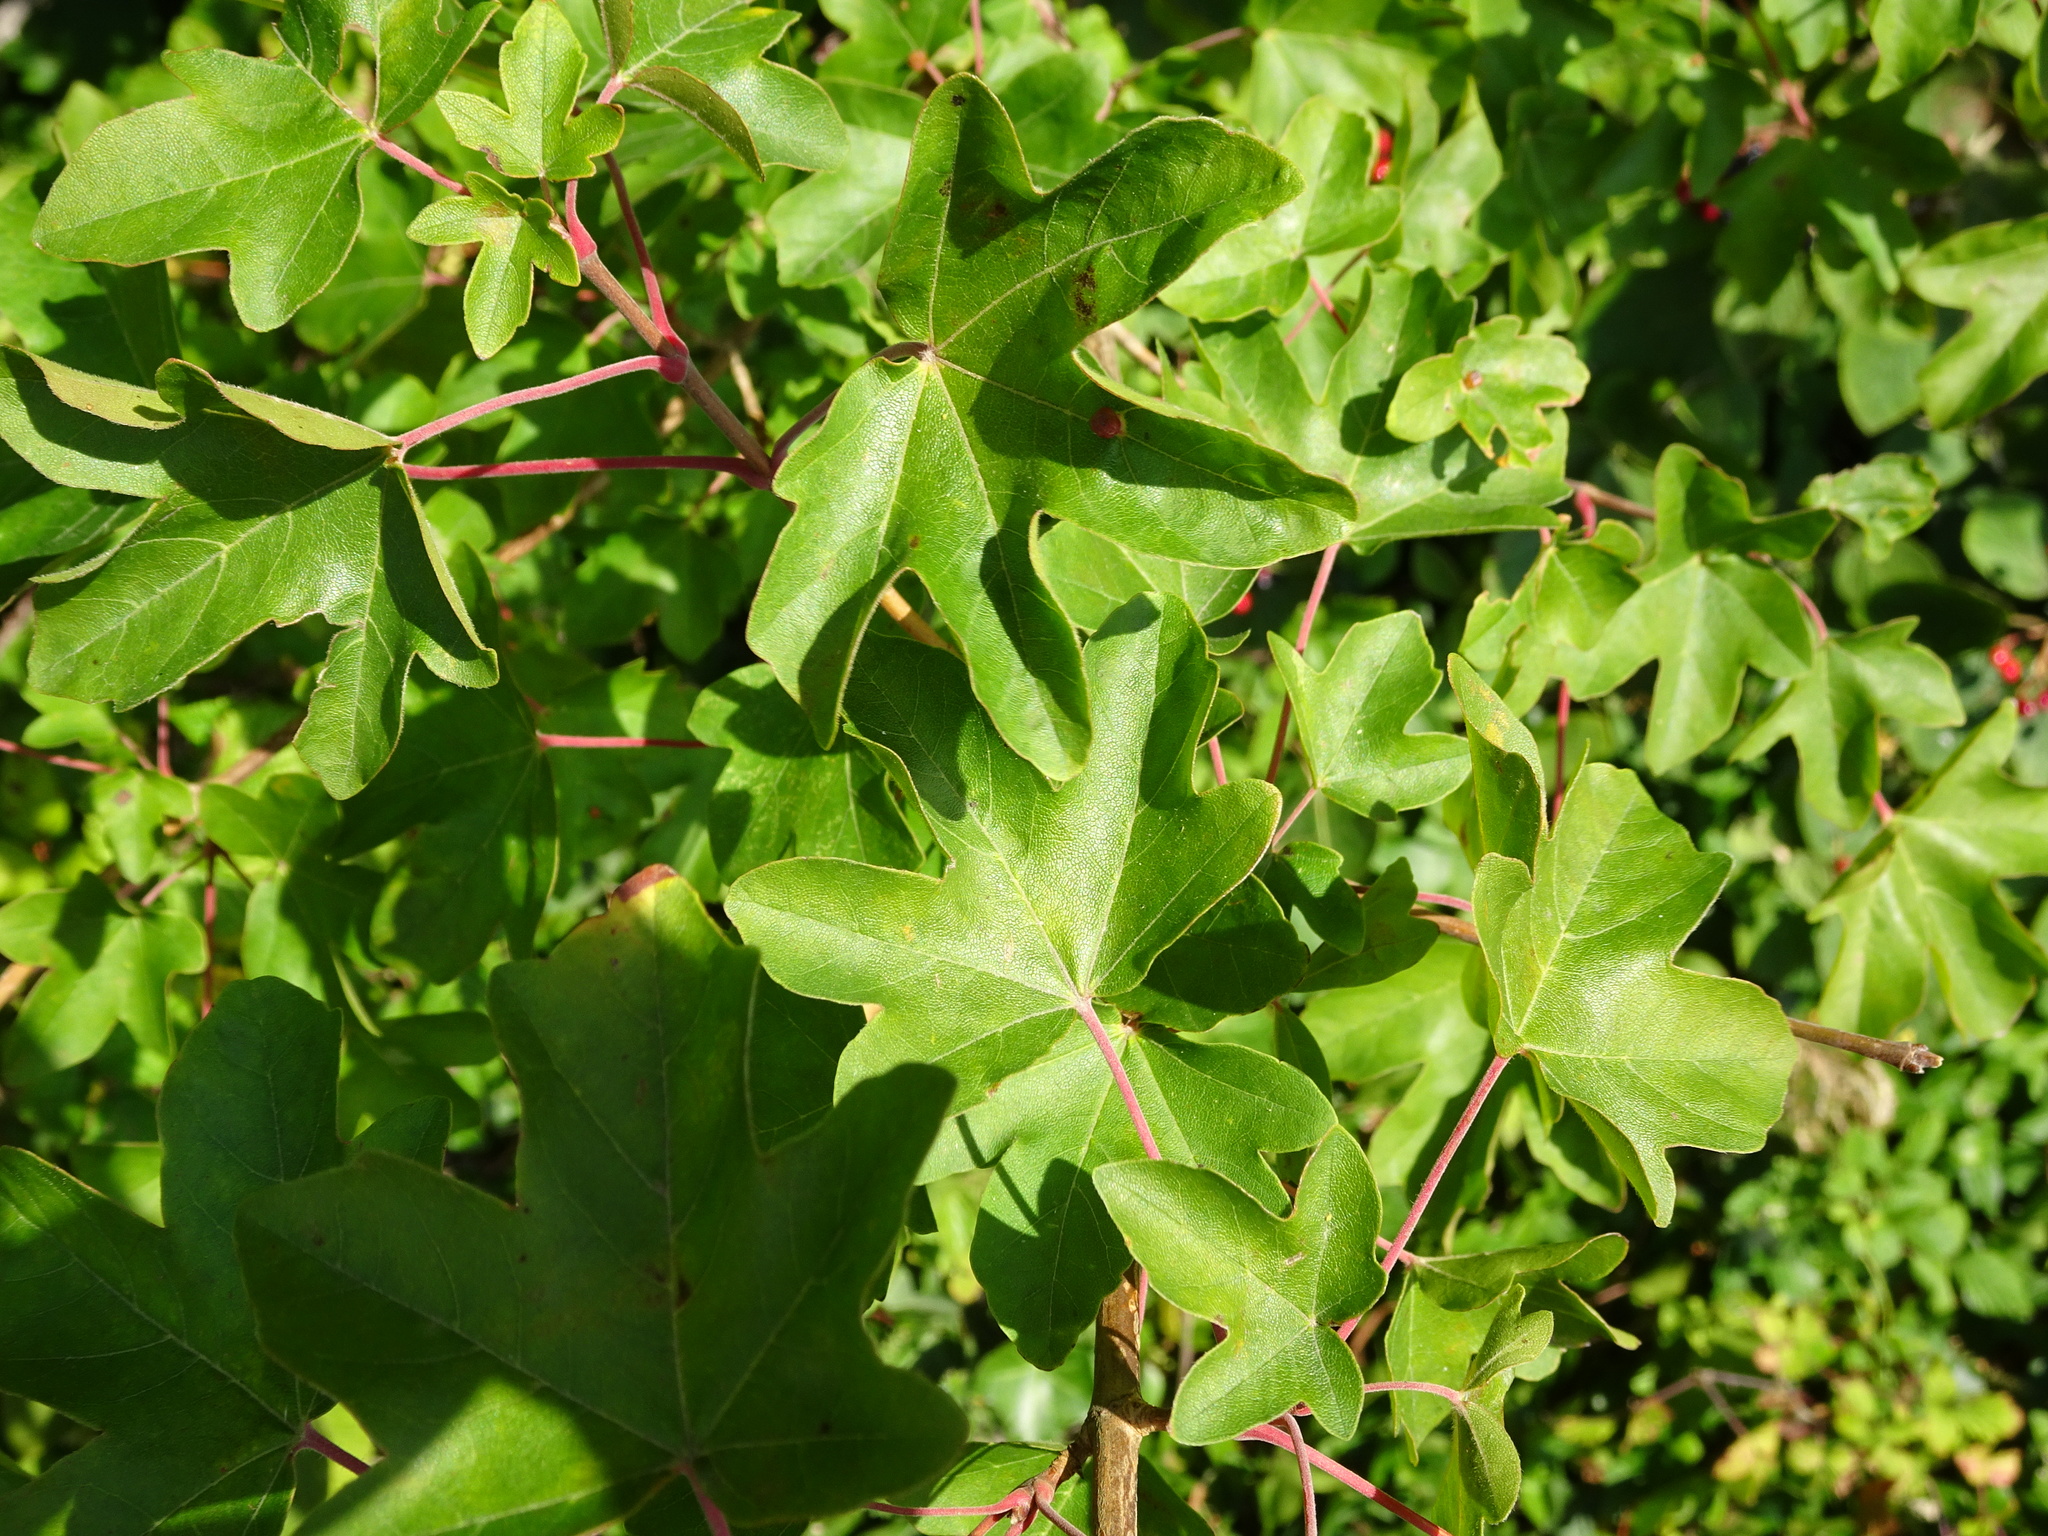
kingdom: Plantae
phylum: Tracheophyta
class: Magnoliopsida
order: Sapindales
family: Sapindaceae
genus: Acer
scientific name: Acer campestre
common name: Field maple
